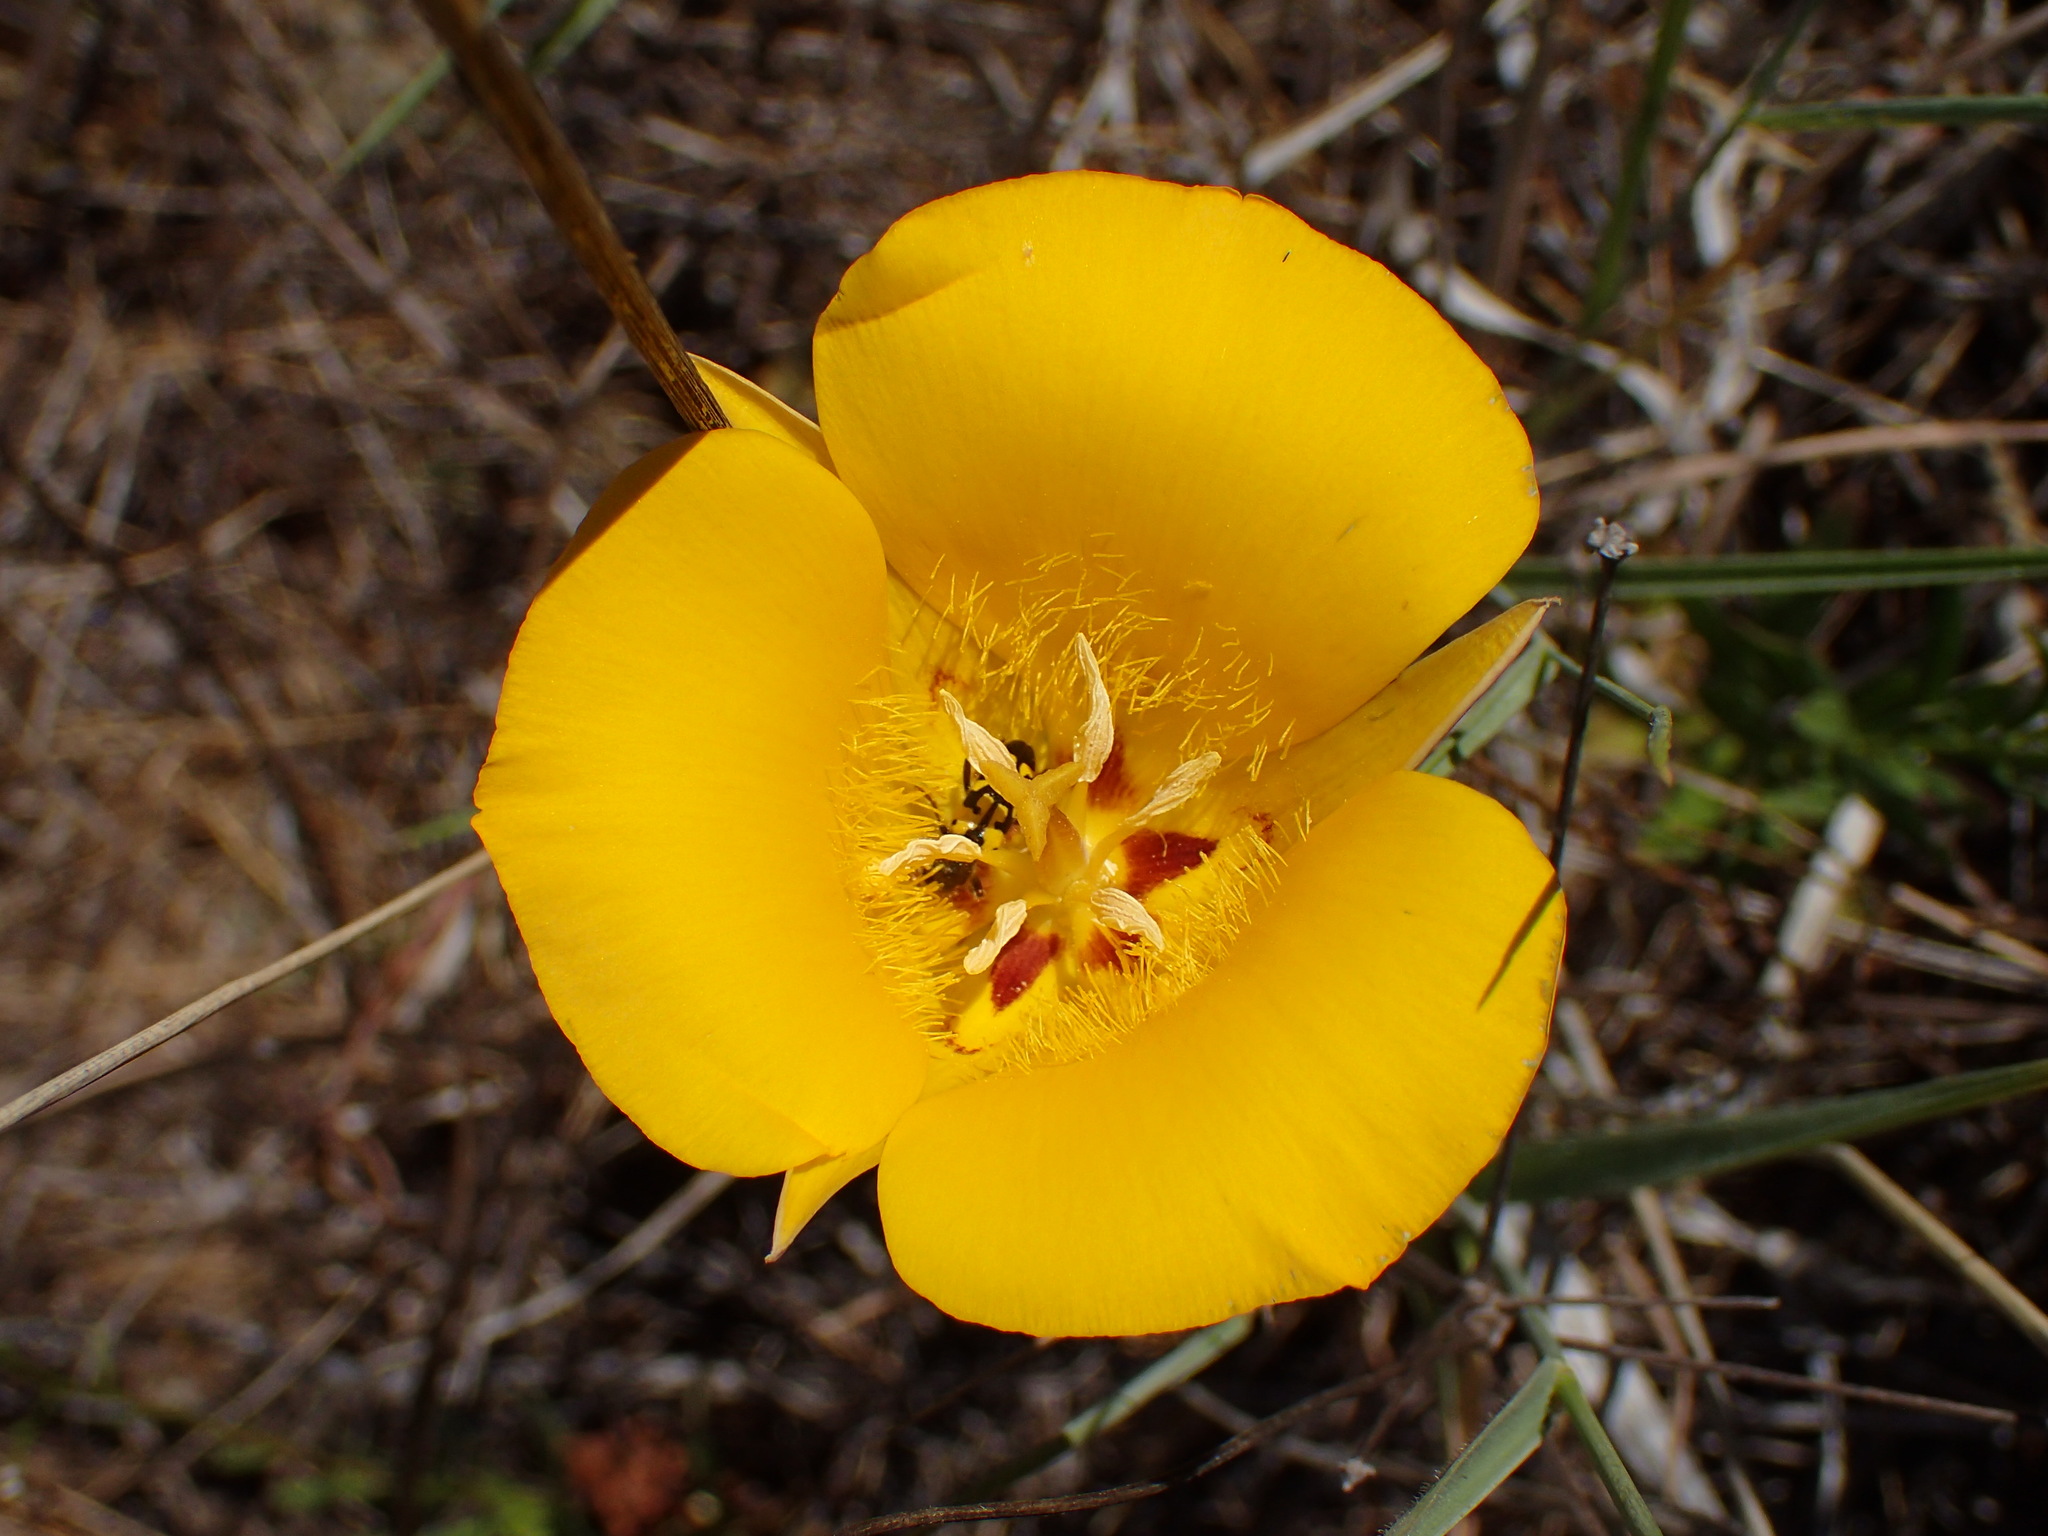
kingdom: Plantae
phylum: Tracheophyta
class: Liliopsida
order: Liliales
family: Liliaceae
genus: Calochortus
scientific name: Calochortus clavatus
